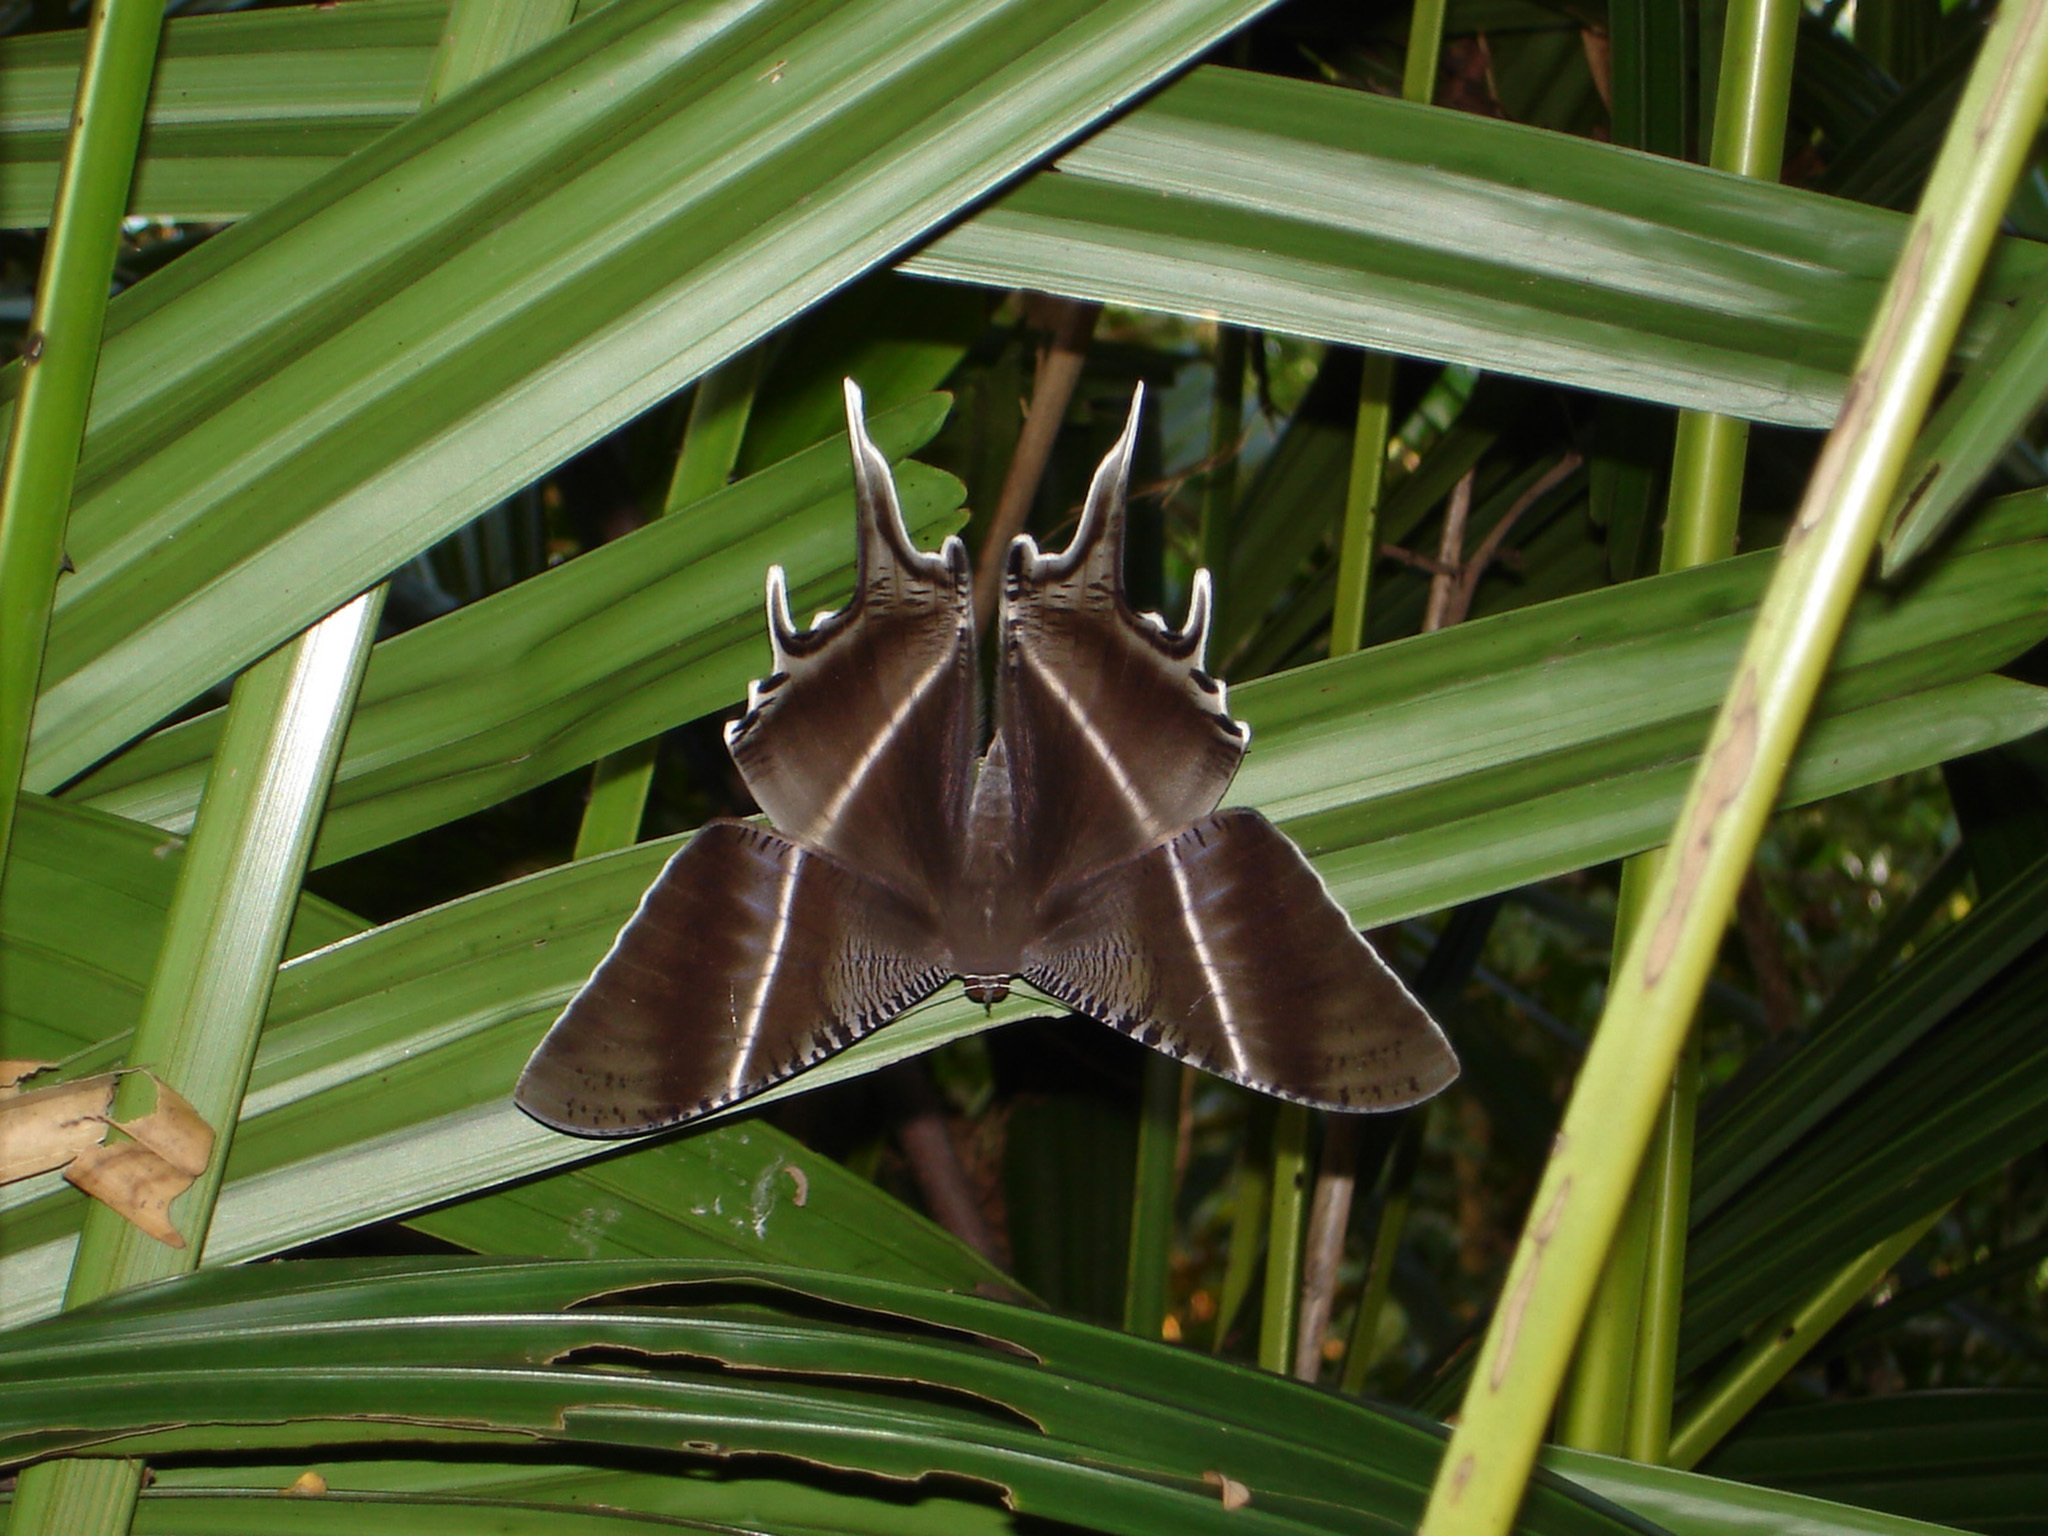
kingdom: Animalia
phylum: Arthropoda
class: Insecta
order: Lepidoptera
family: Uraniidae
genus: Lyssa
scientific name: Lyssa zampa
